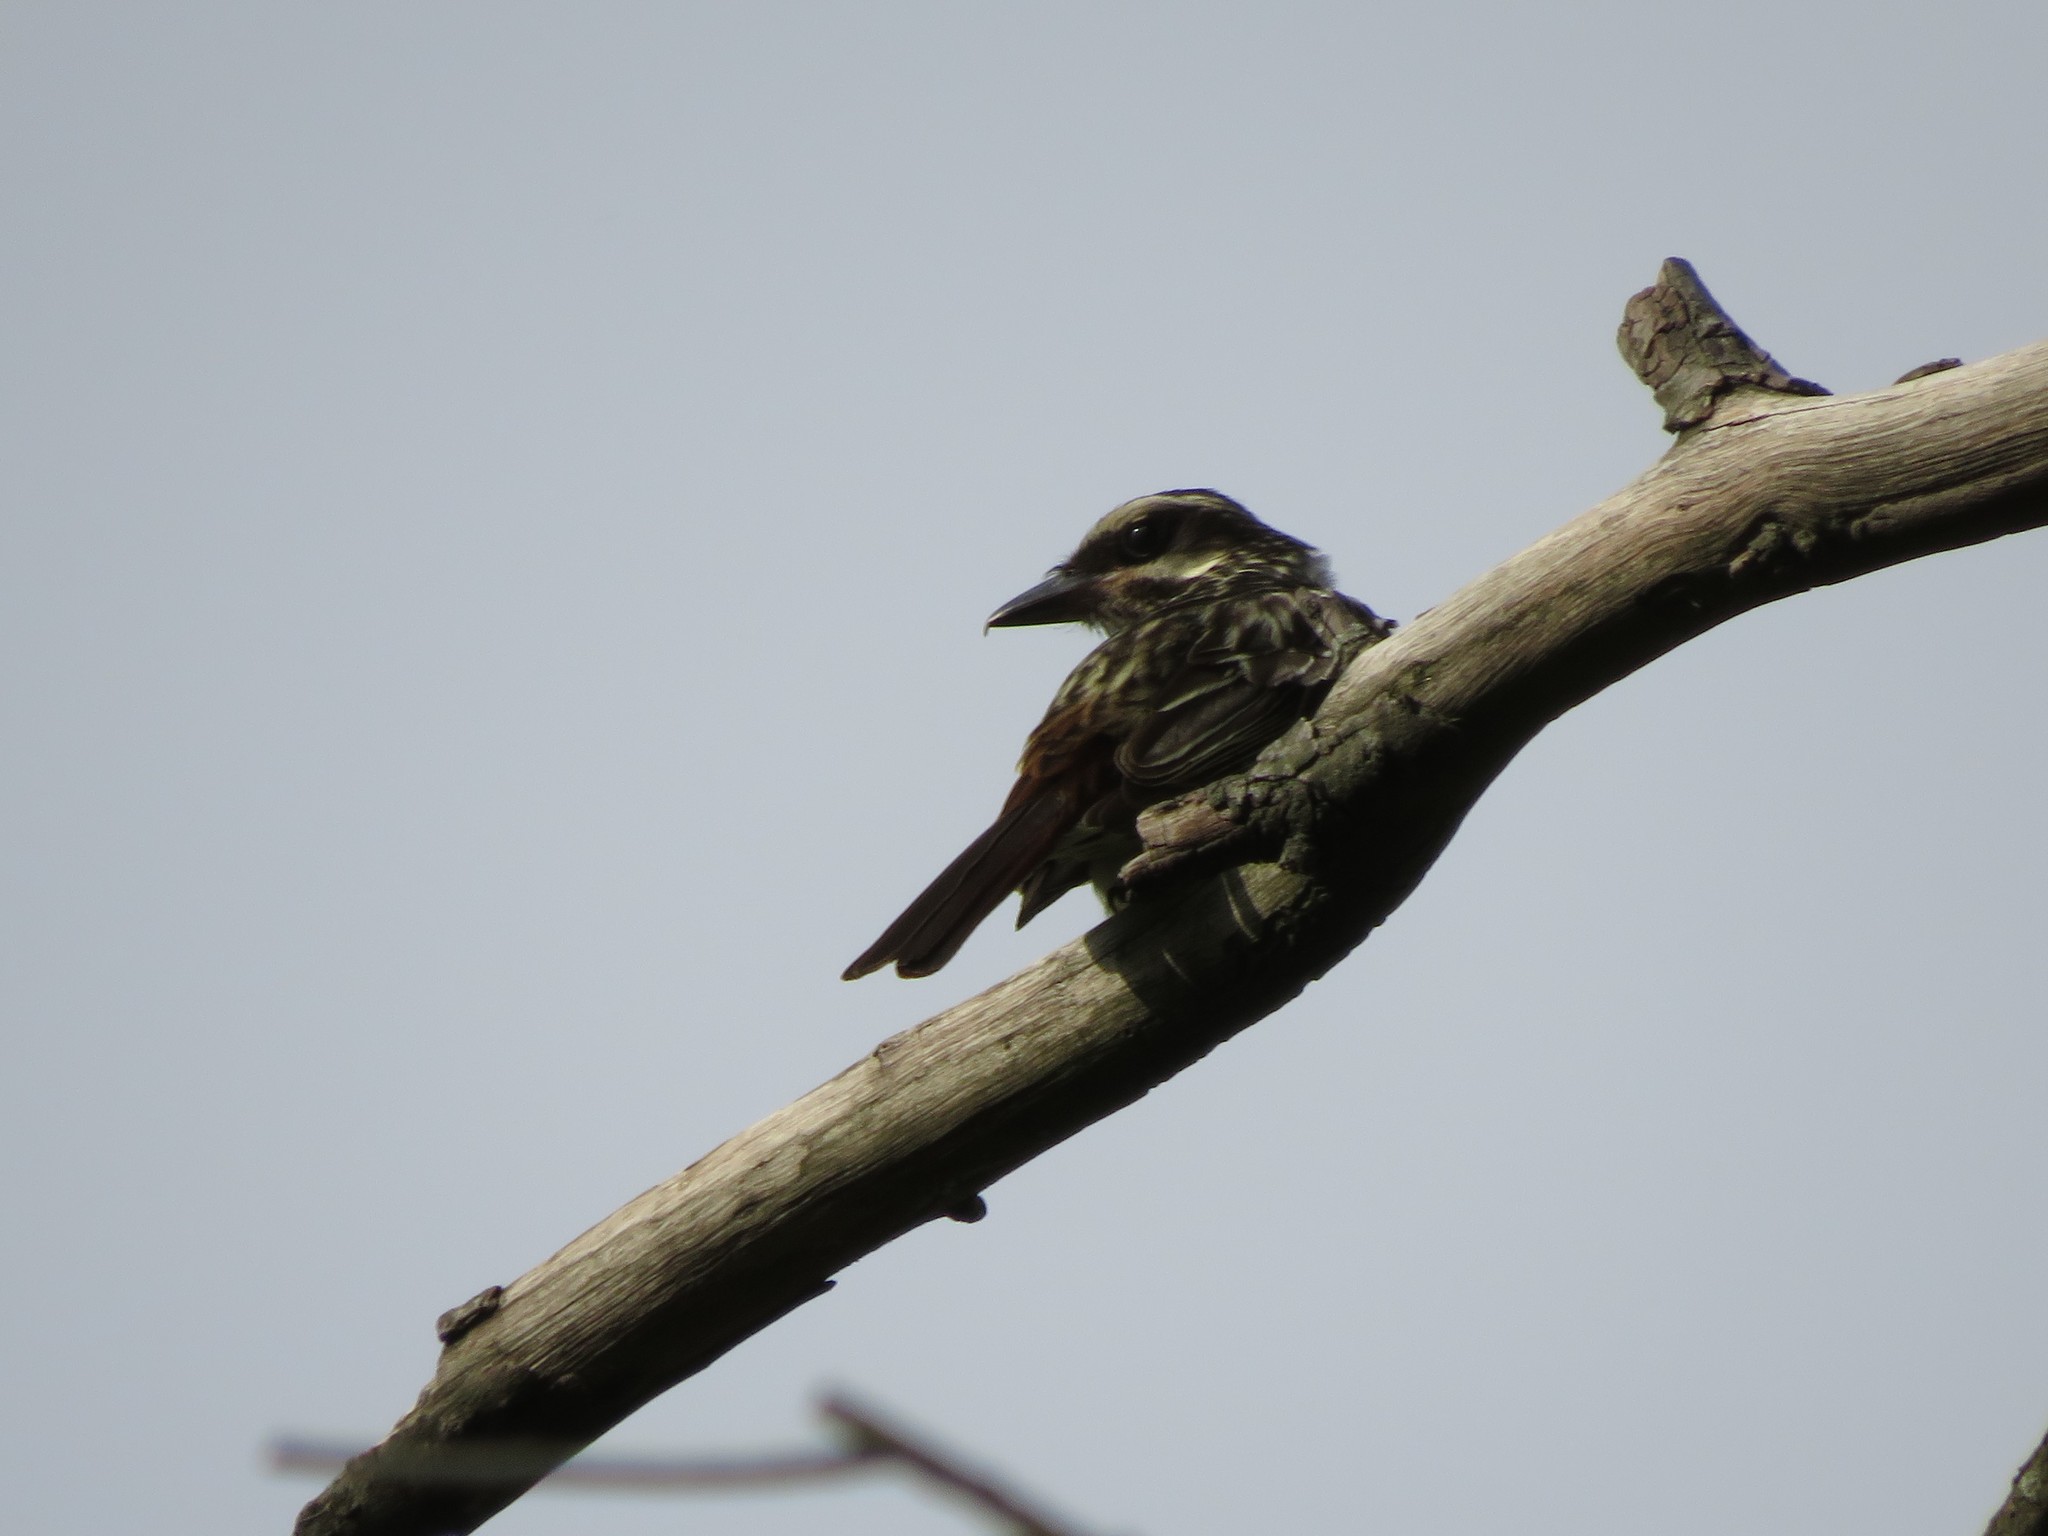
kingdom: Animalia
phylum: Chordata
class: Aves
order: Passeriformes
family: Tyrannidae
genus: Myiodynastes
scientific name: Myiodynastes maculatus
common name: Streaked flycatcher
